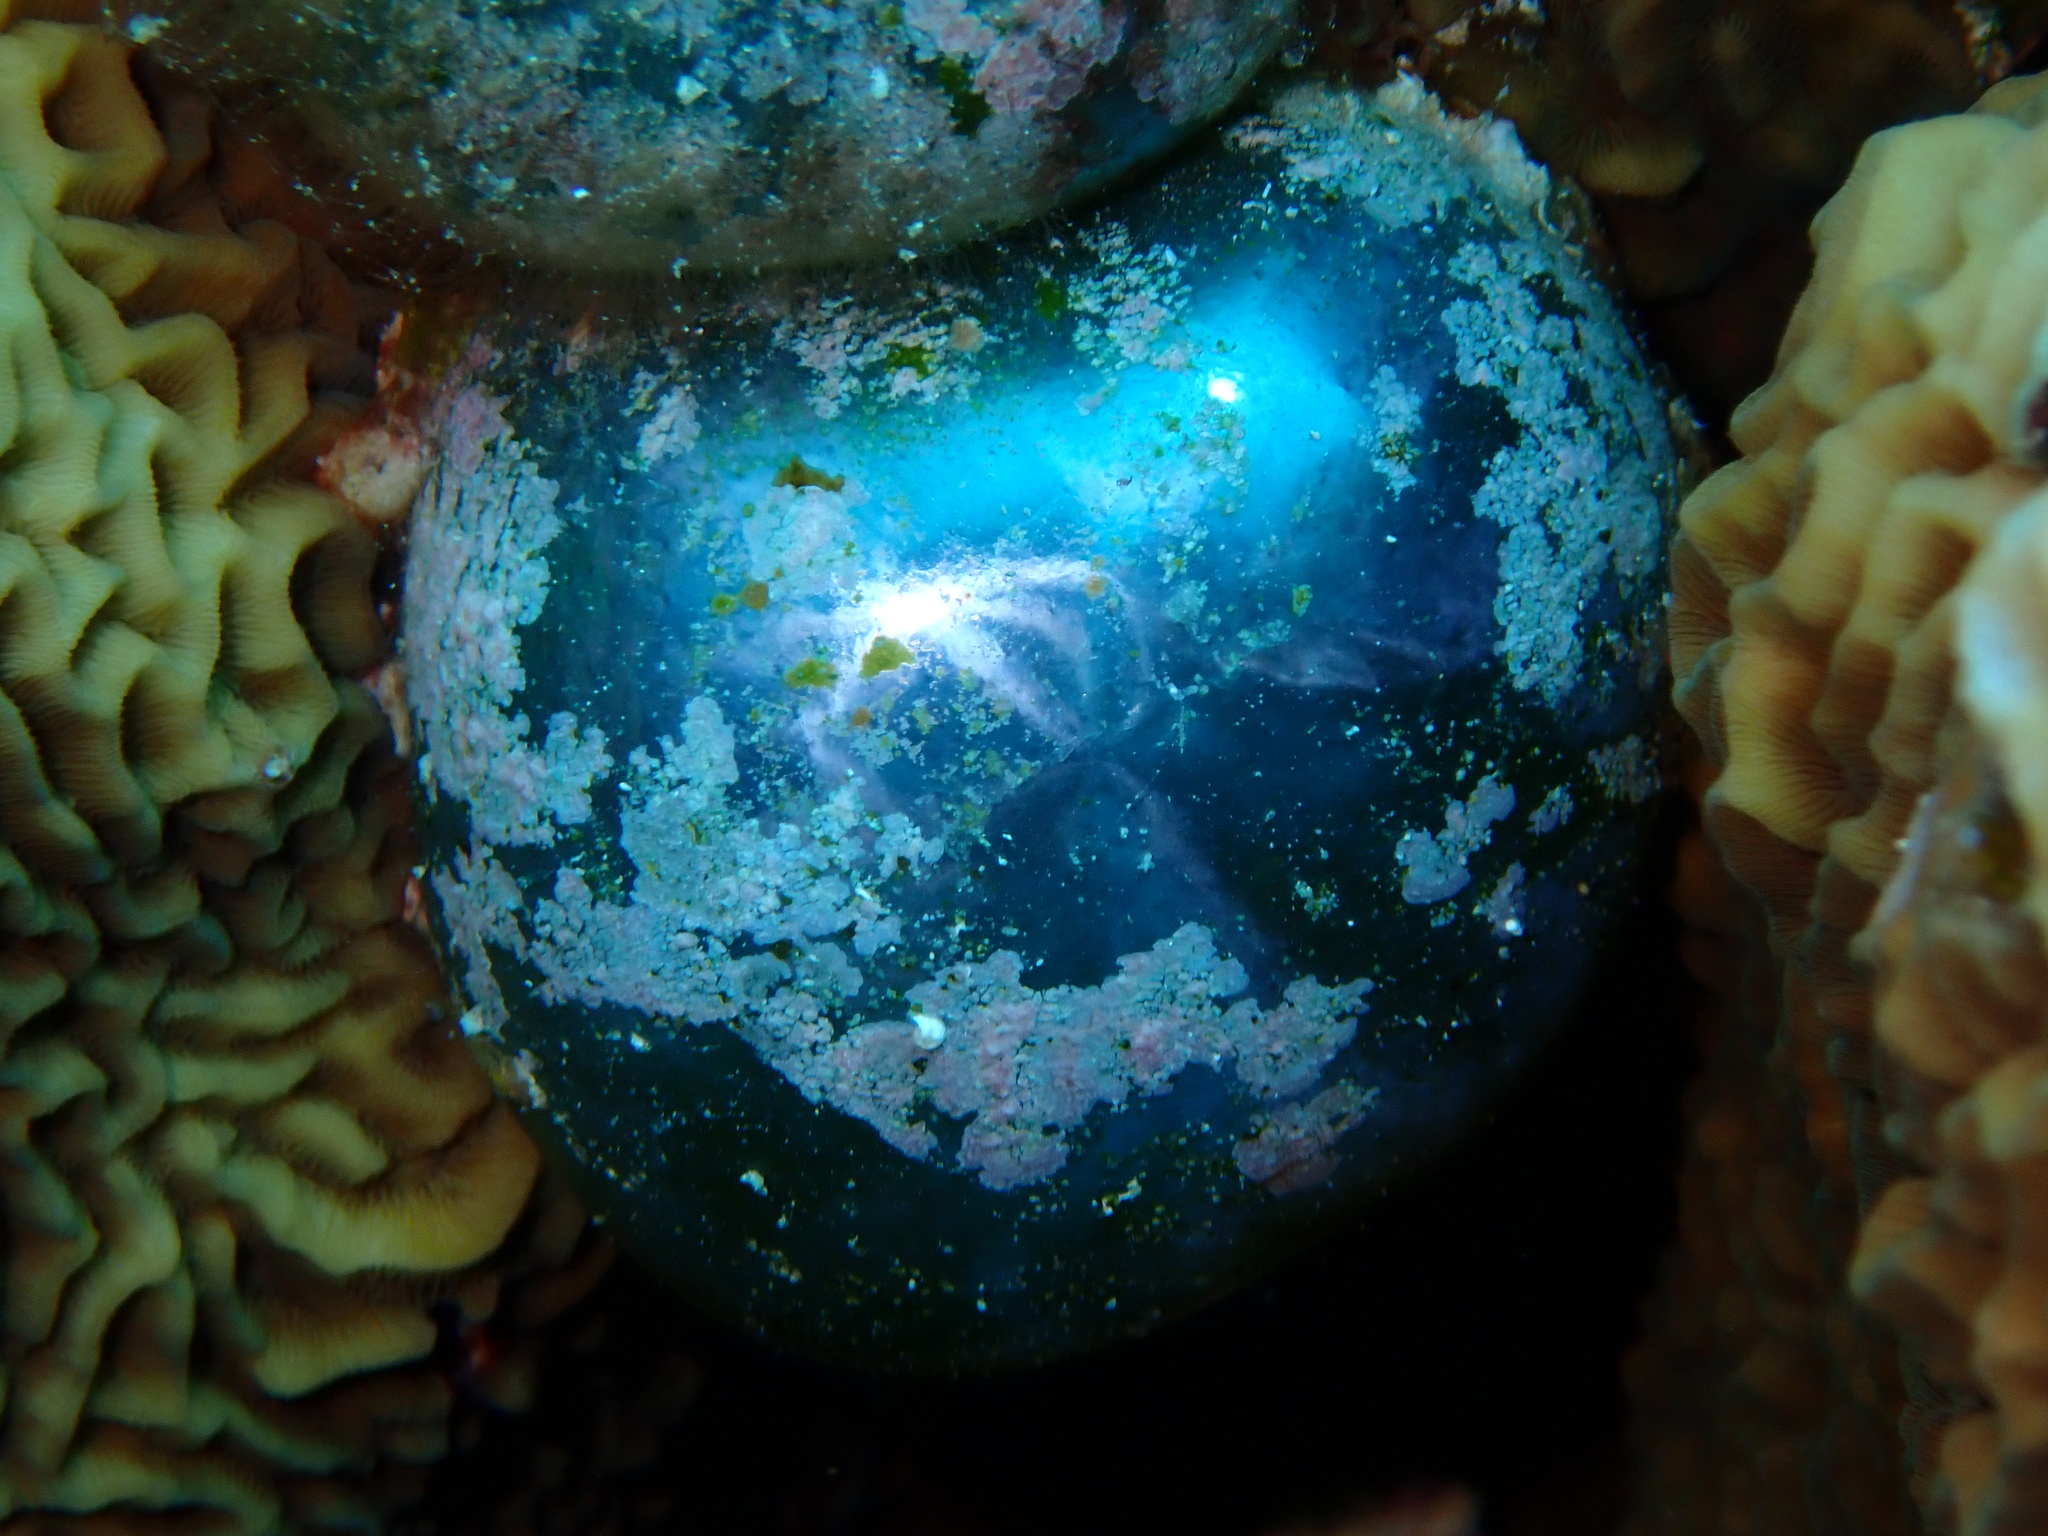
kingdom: Plantae
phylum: Chlorophyta
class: Ulvophyceae
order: Siphonocladales
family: Valoniaceae
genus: Valonia
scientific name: Valonia ventricosa
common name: Sea pearl
